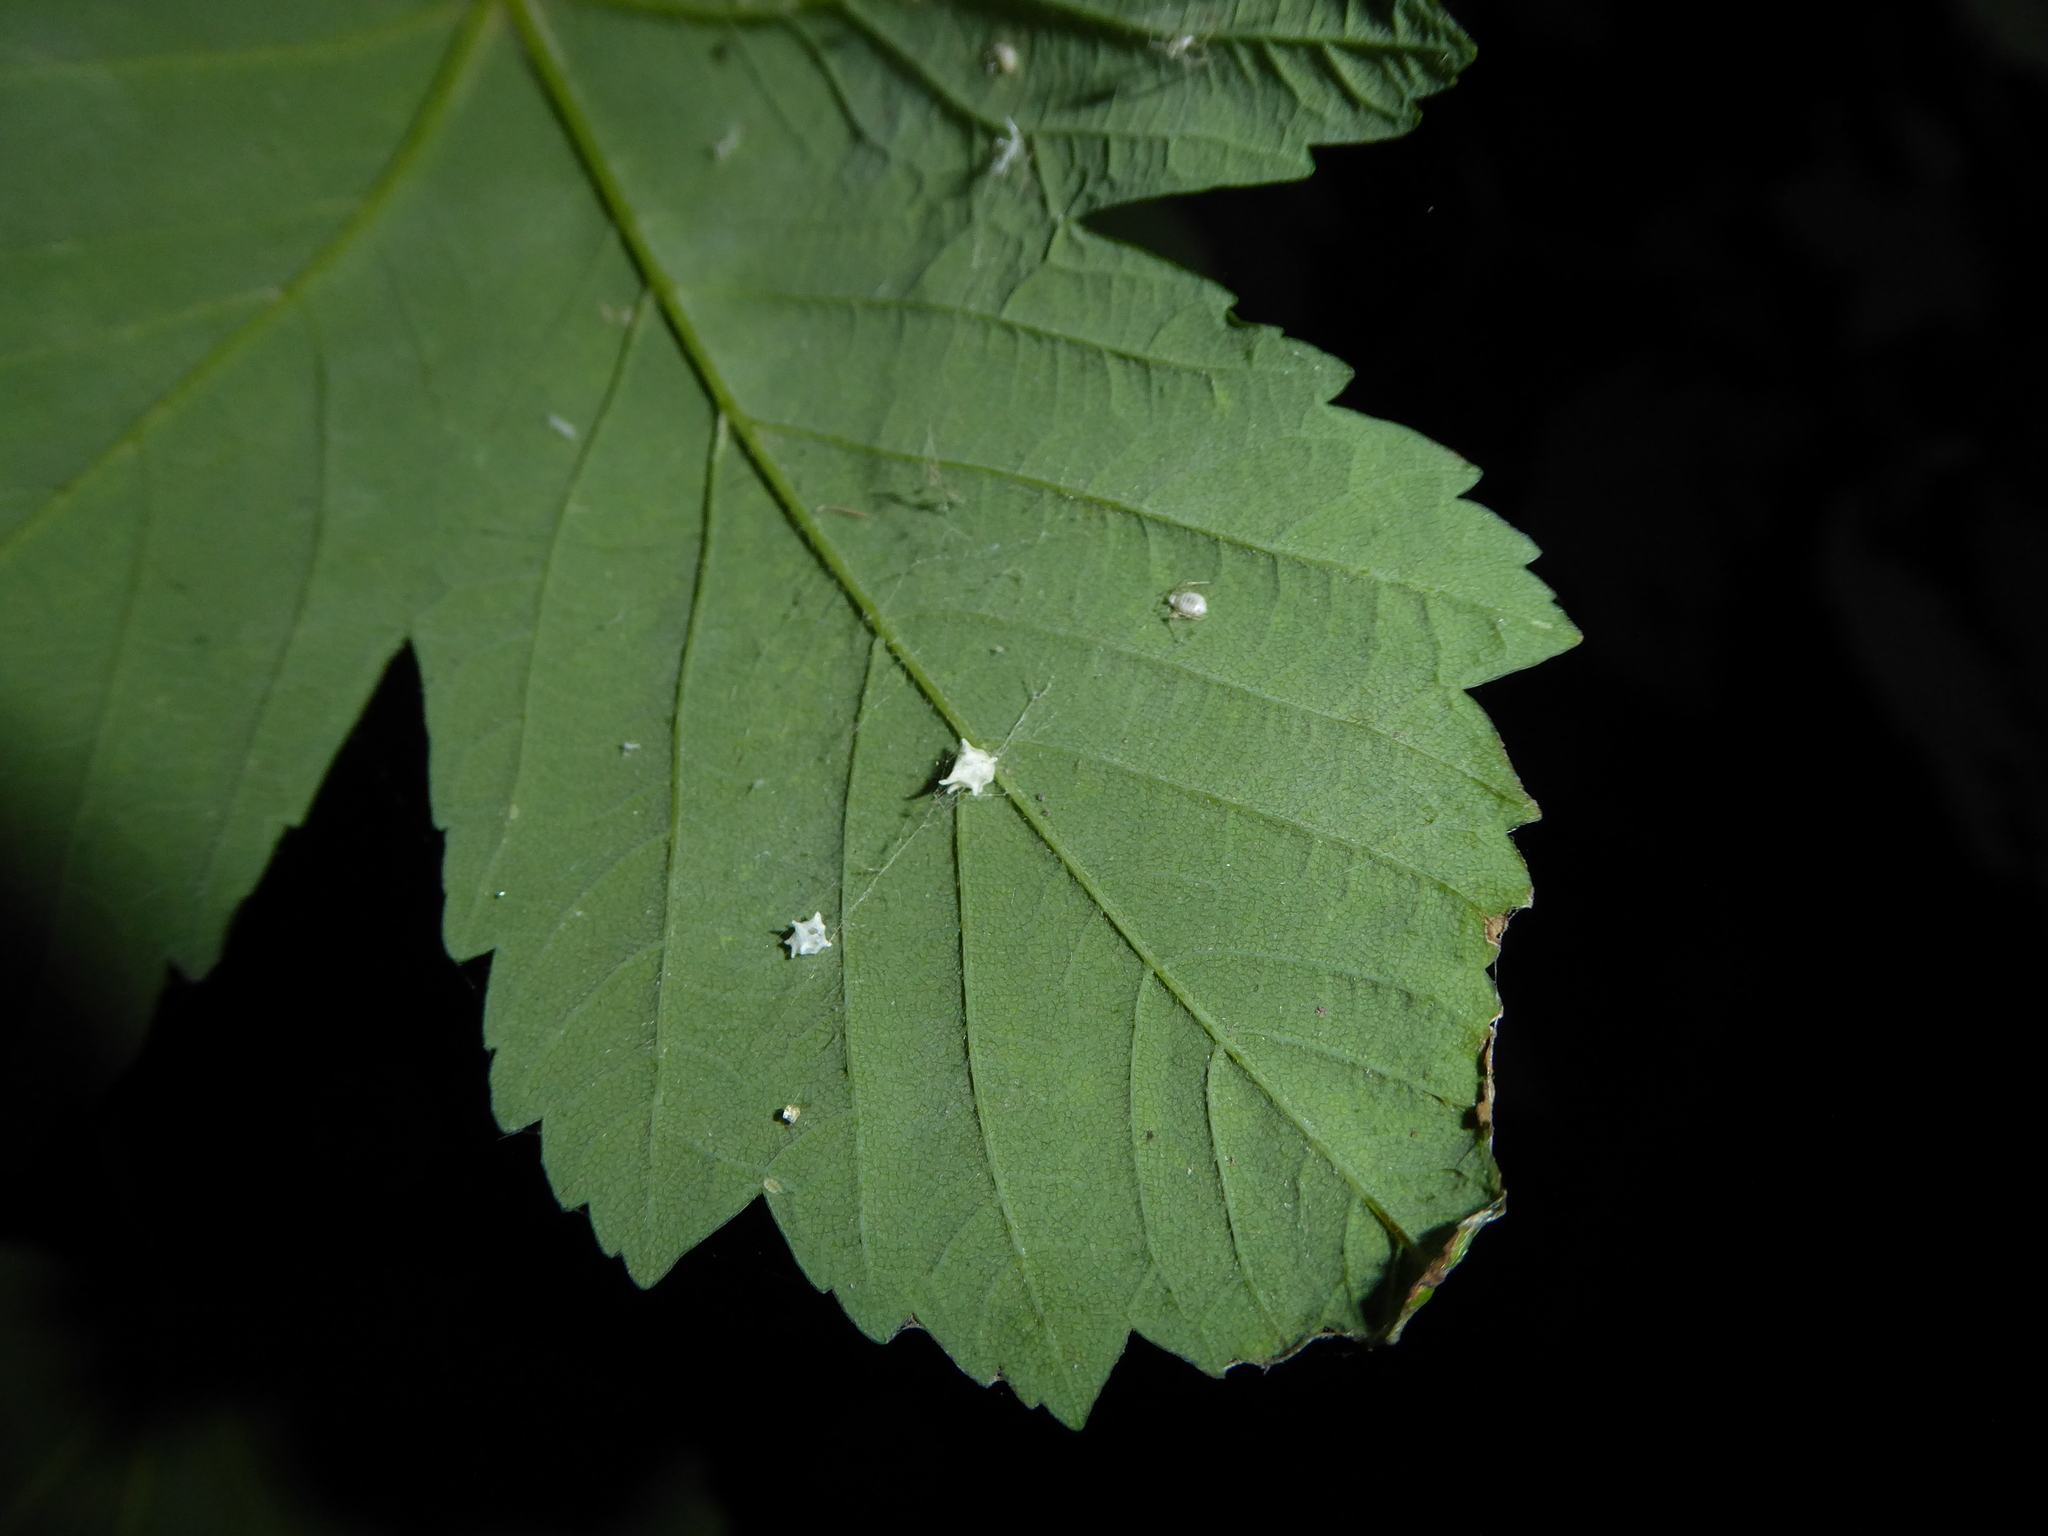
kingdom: Animalia
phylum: Arthropoda
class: Arachnida
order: Araneae
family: Theridiidae
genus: Paidiscura
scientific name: Paidiscura pallens
